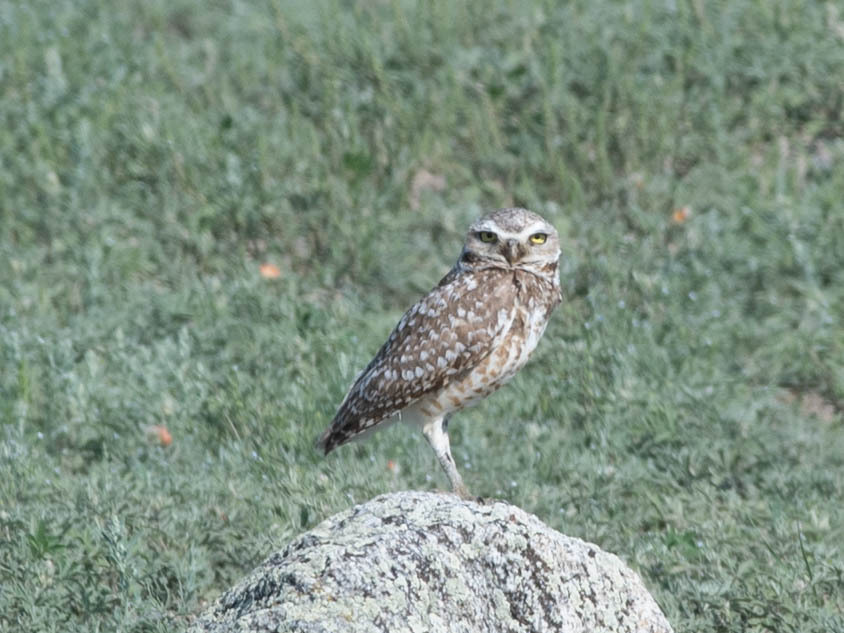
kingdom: Animalia
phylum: Chordata
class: Aves
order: Strigiformes
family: Strigidae
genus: Athene
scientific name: Athene cunicularia
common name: Burrowing owl
